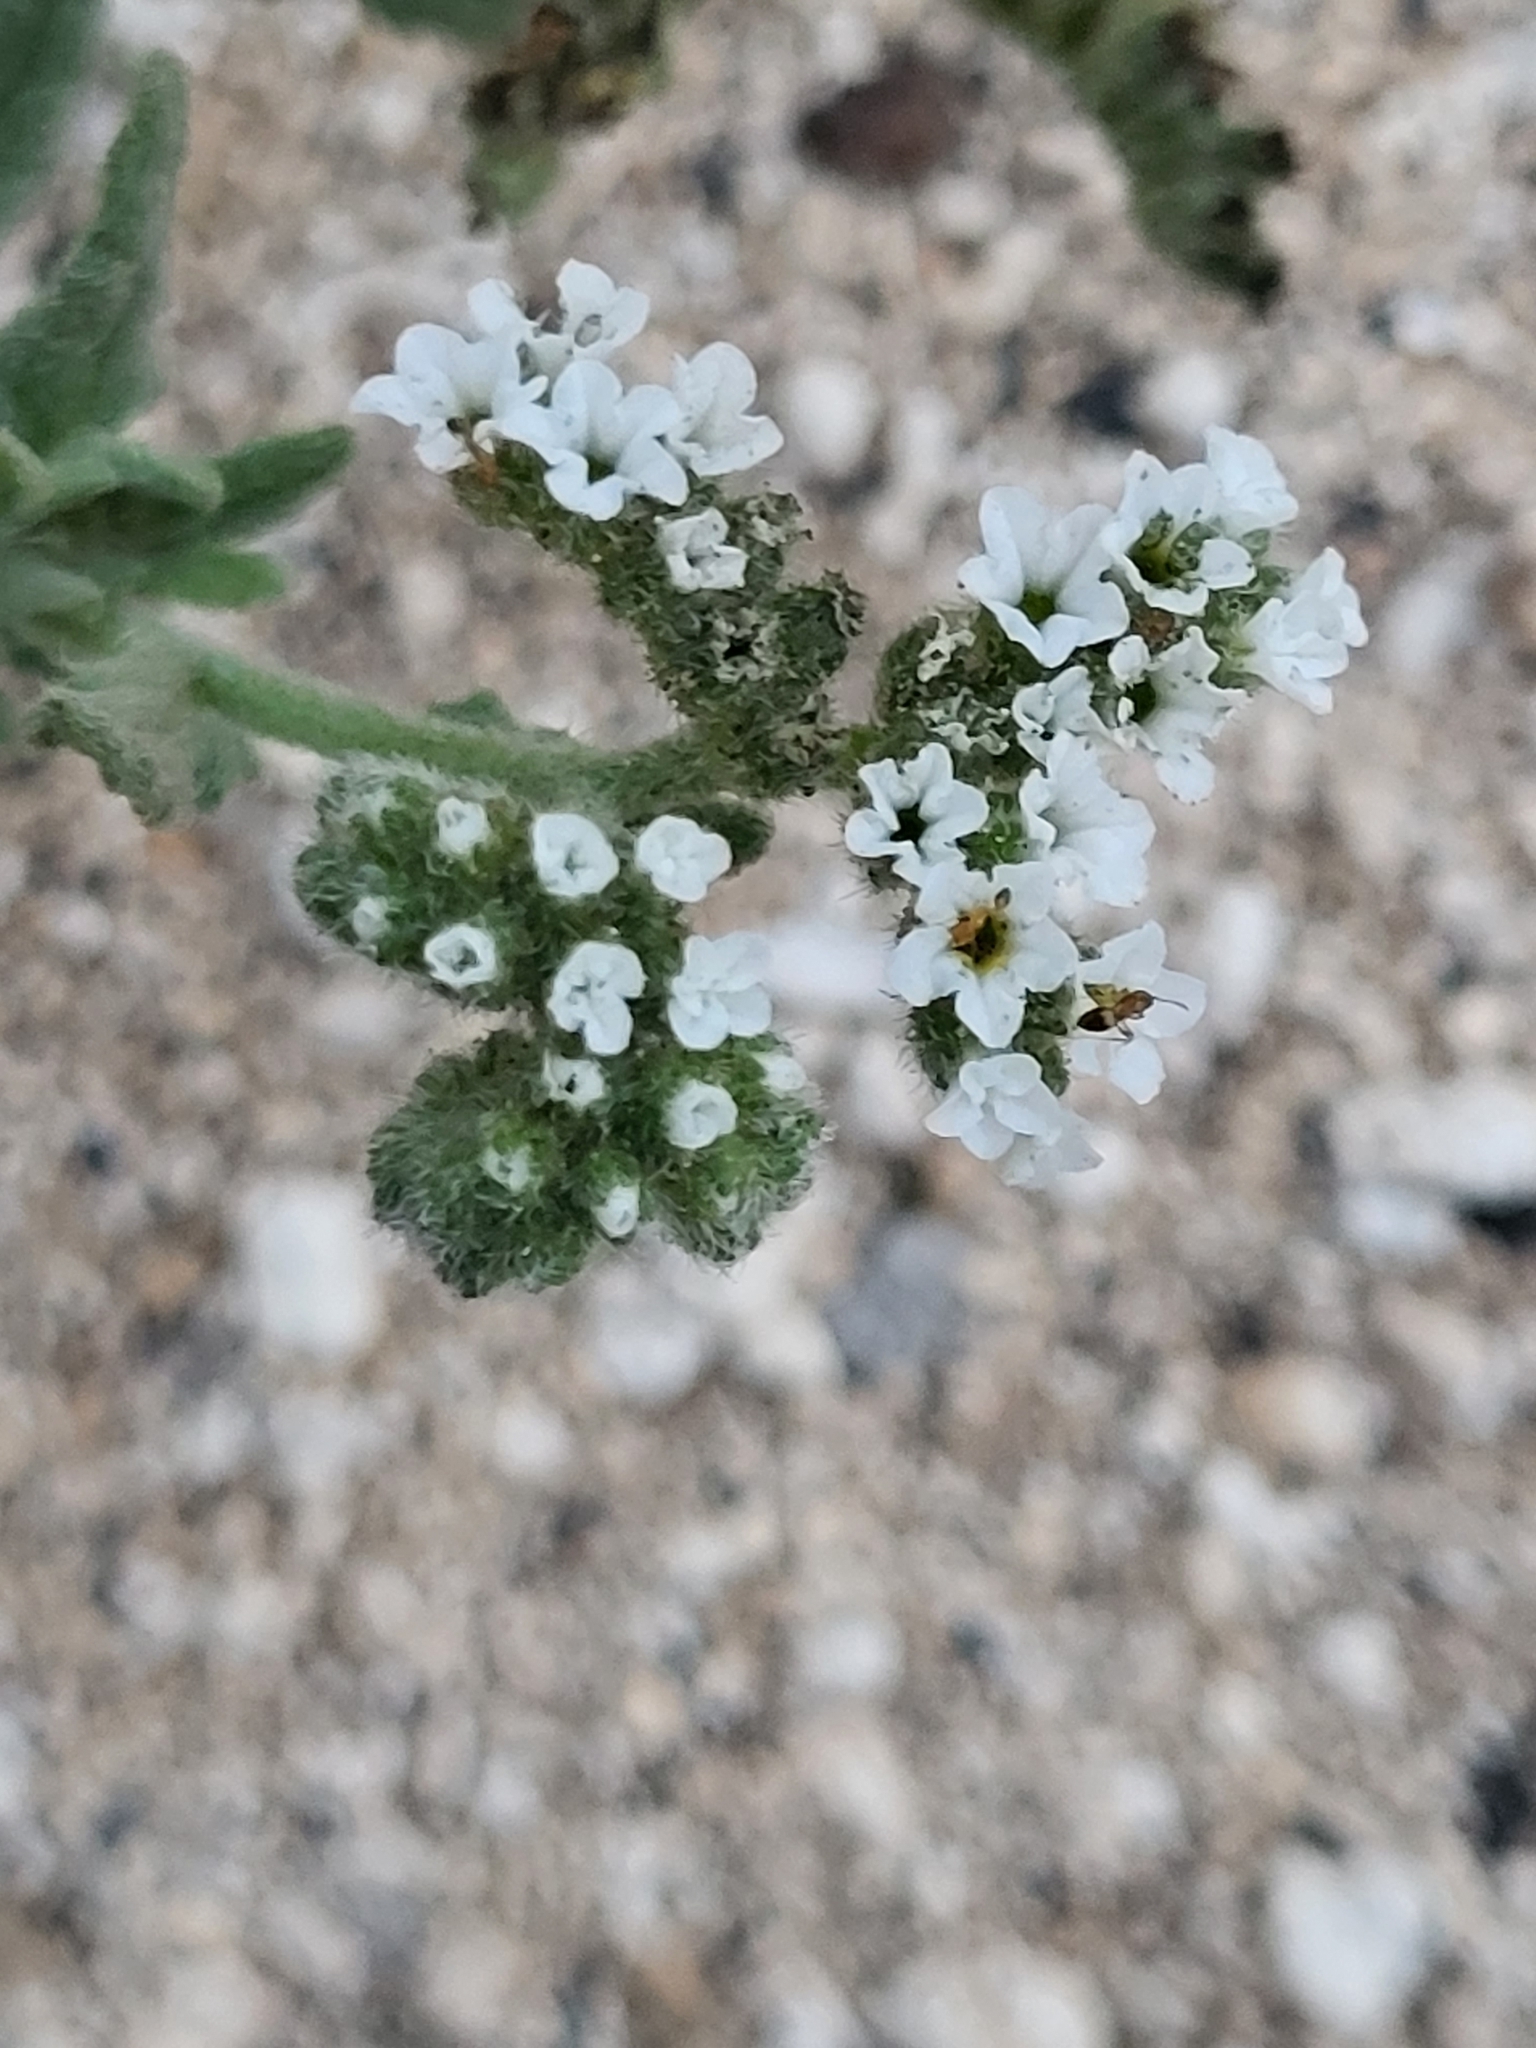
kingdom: Plantae
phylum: Tracheophyta
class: Magnoliopsida
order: Boraginales
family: Heliotropiaceae
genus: Heliotropium
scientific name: Heliotropium ramosissimum
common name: Wavy heliotrope
